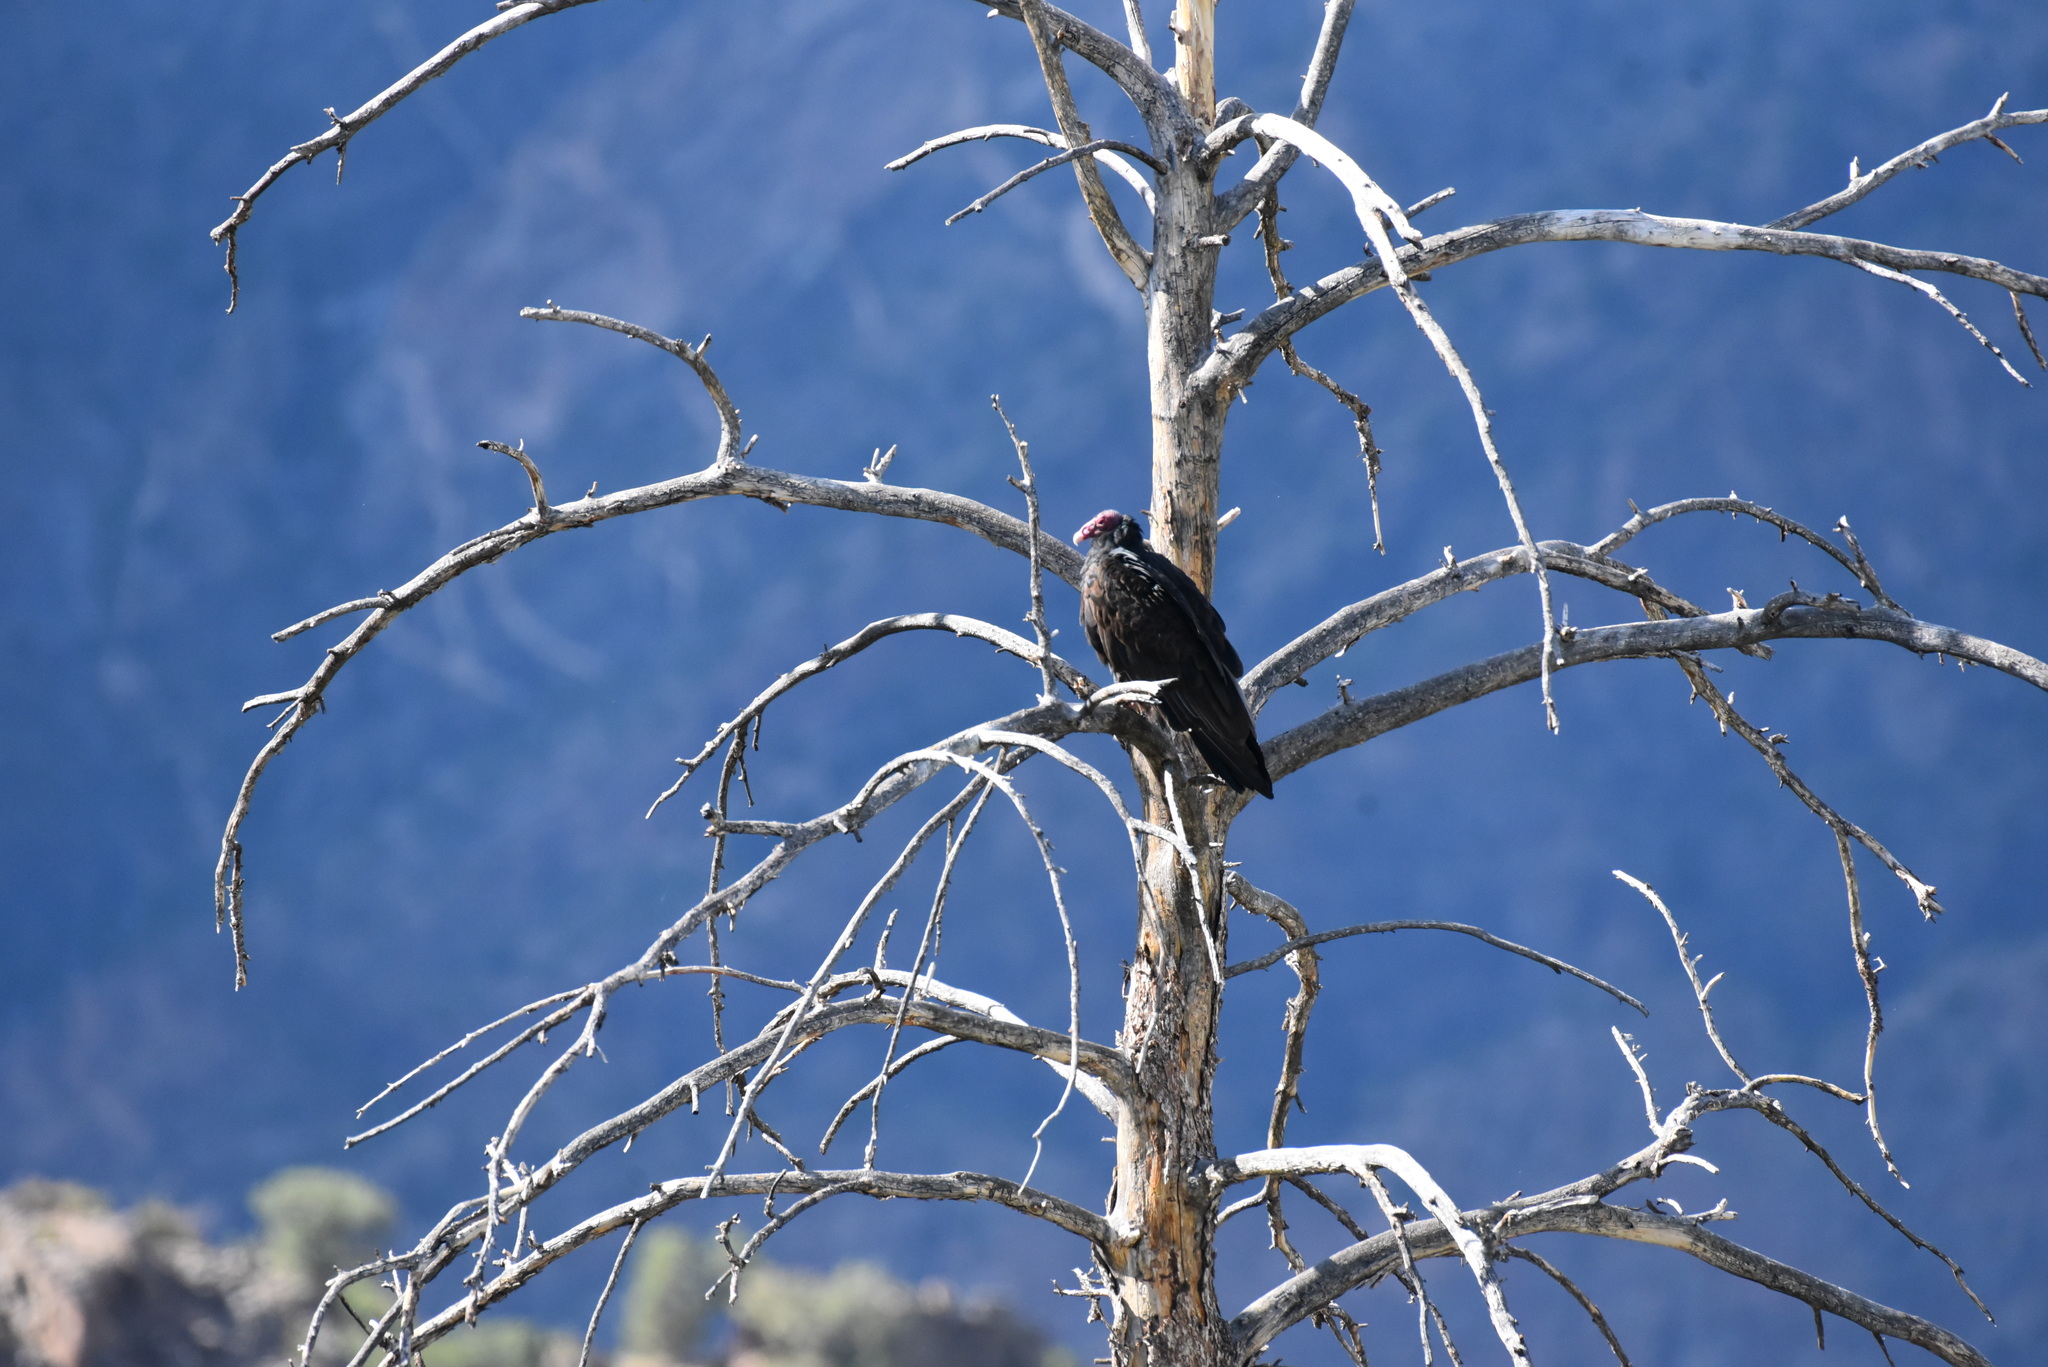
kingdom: Animalia
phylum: Chordata
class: Aves
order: Accipitriformes
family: Cathartidae
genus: Cathartes
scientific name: Cathartes aura
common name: Turkey vulture
